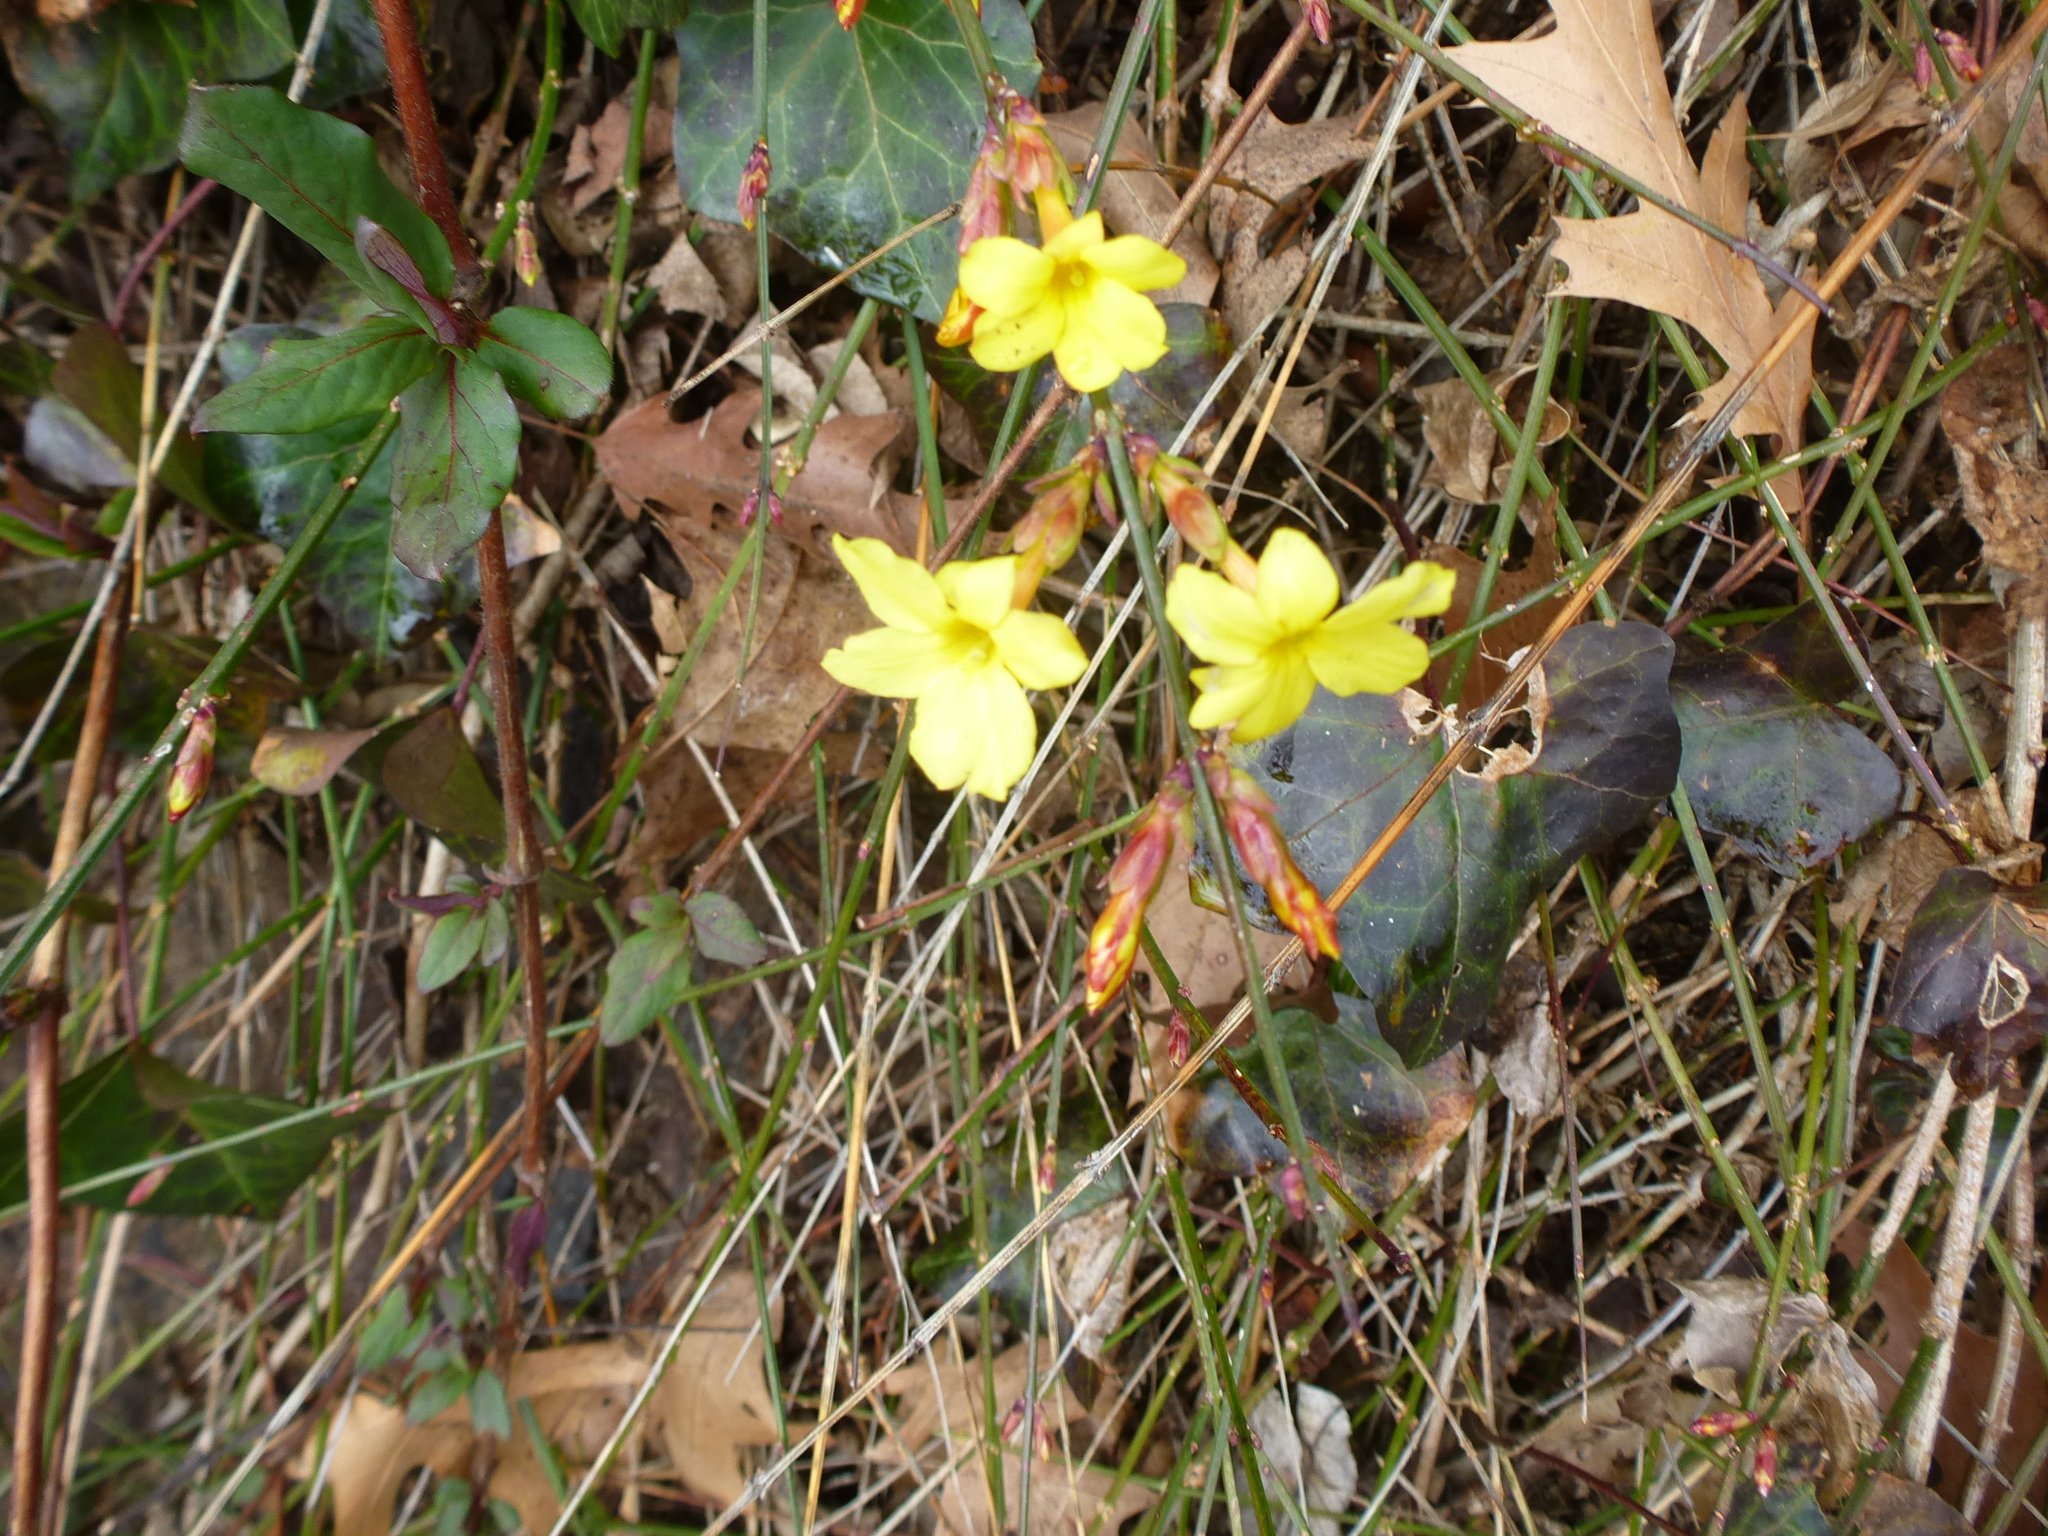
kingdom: Plantae
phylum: Tracheophyta
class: Magnoliopsida
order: Lamiales
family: Oleaceae
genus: Jasminum
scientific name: Jasminum nudiflorum
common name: Winter jasmine
